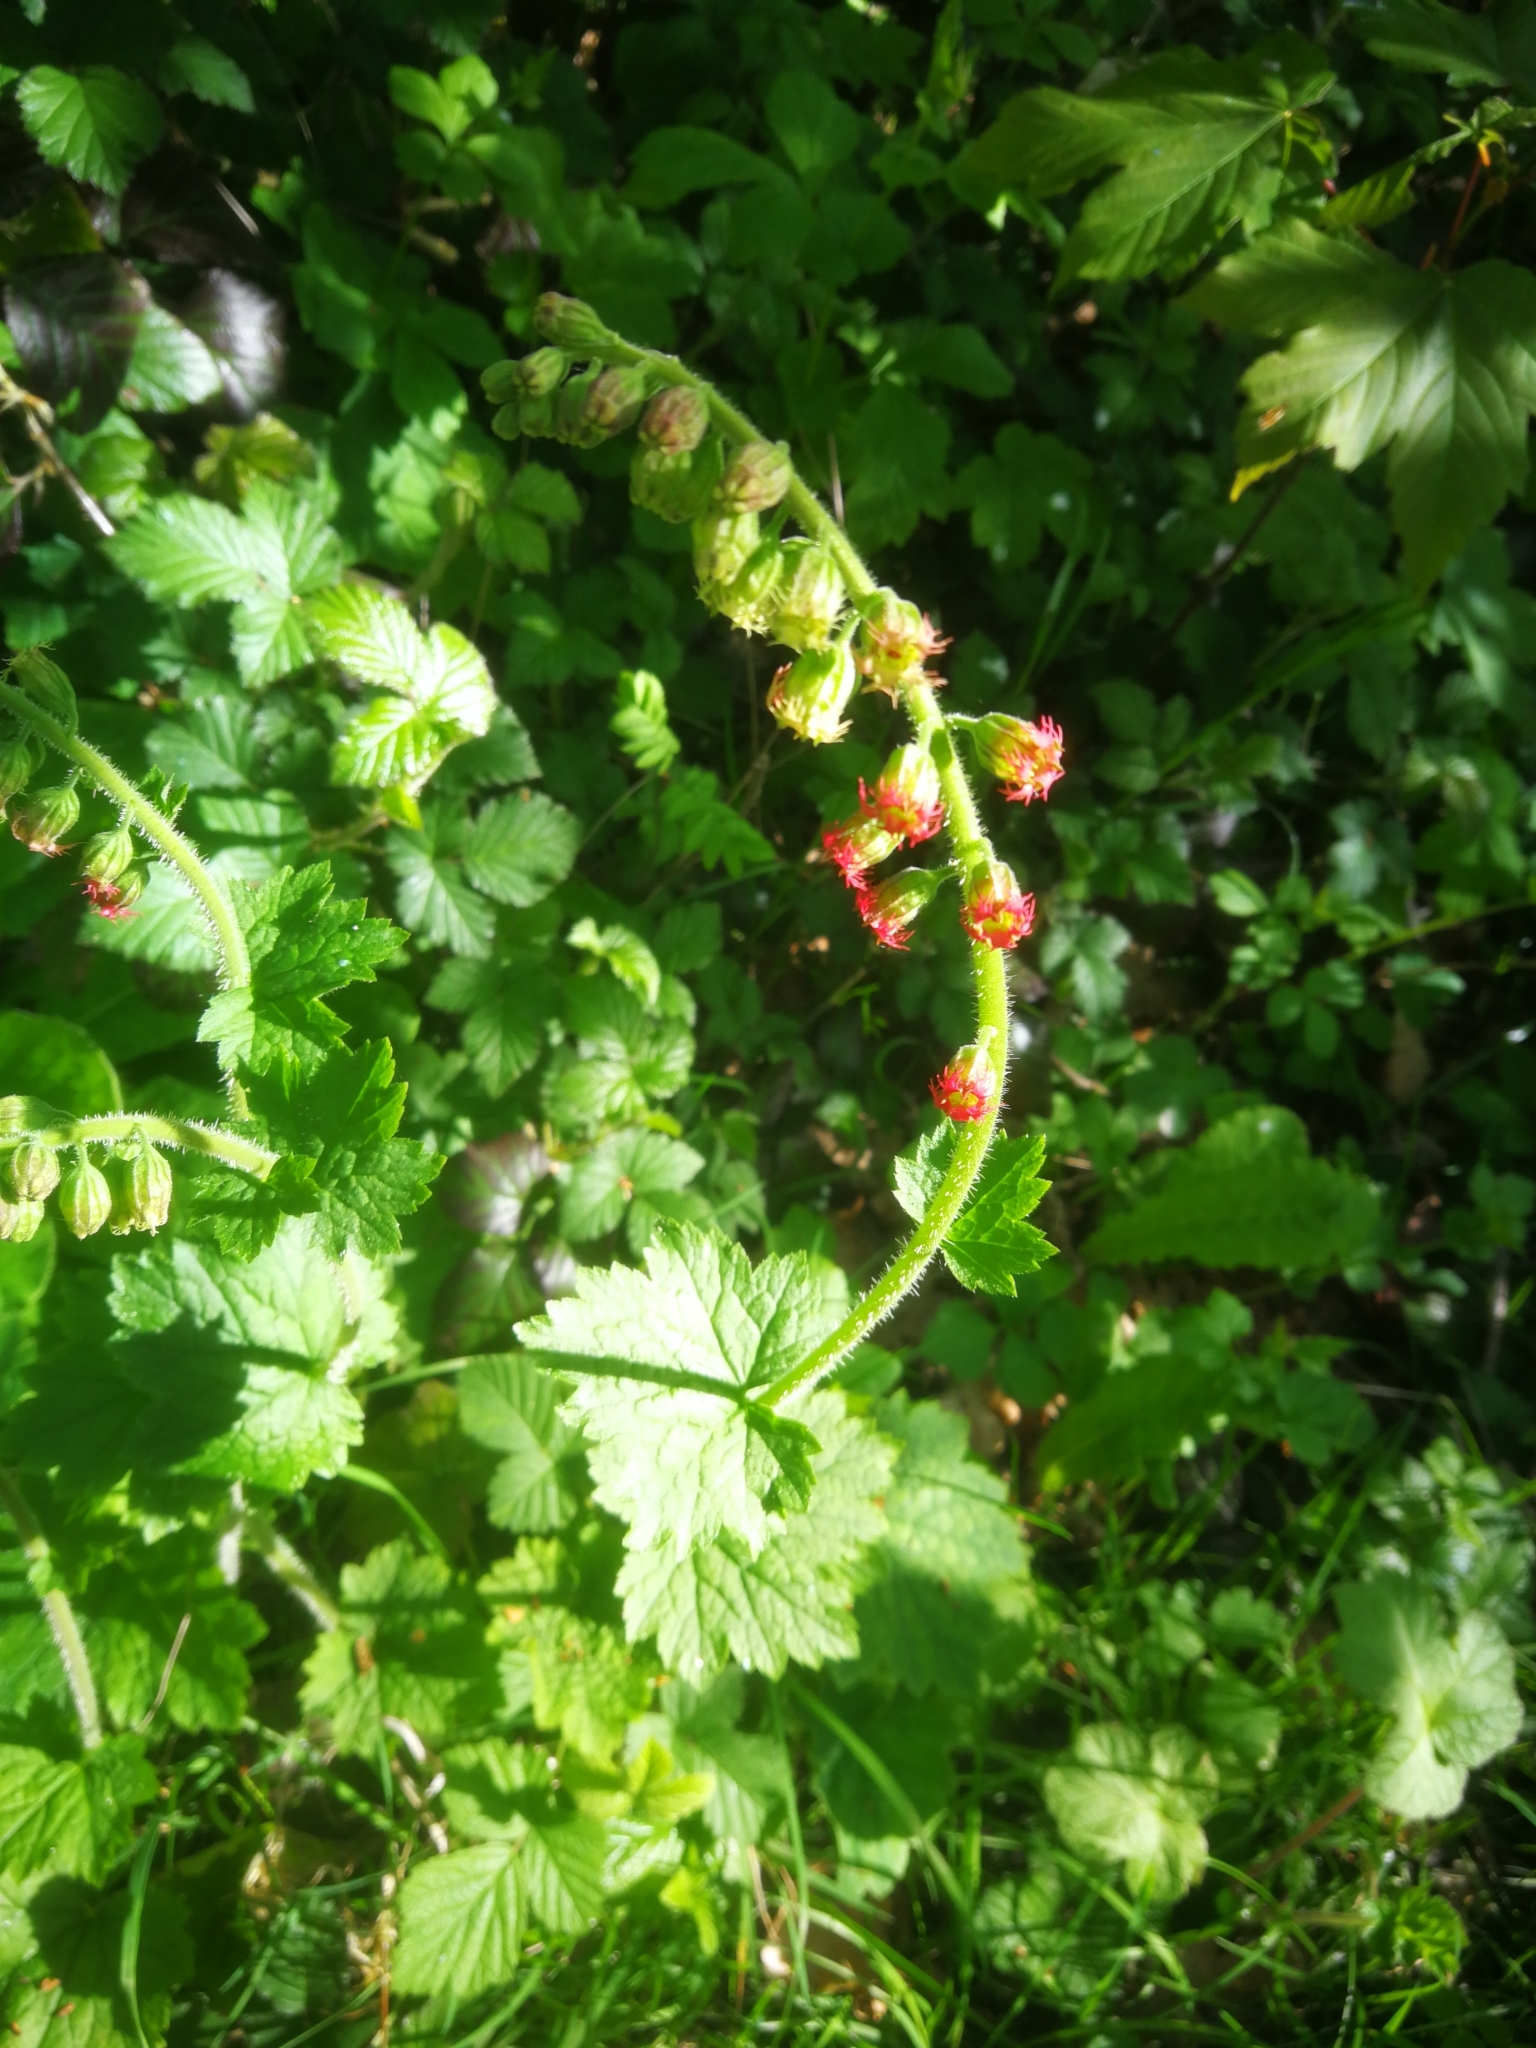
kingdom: Plantae
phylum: Tracheophyta
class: Magnoliopsida
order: Saxifragales
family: Saxifragaceae
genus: Tellima
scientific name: Tellima grandiflora
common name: Fringecups
